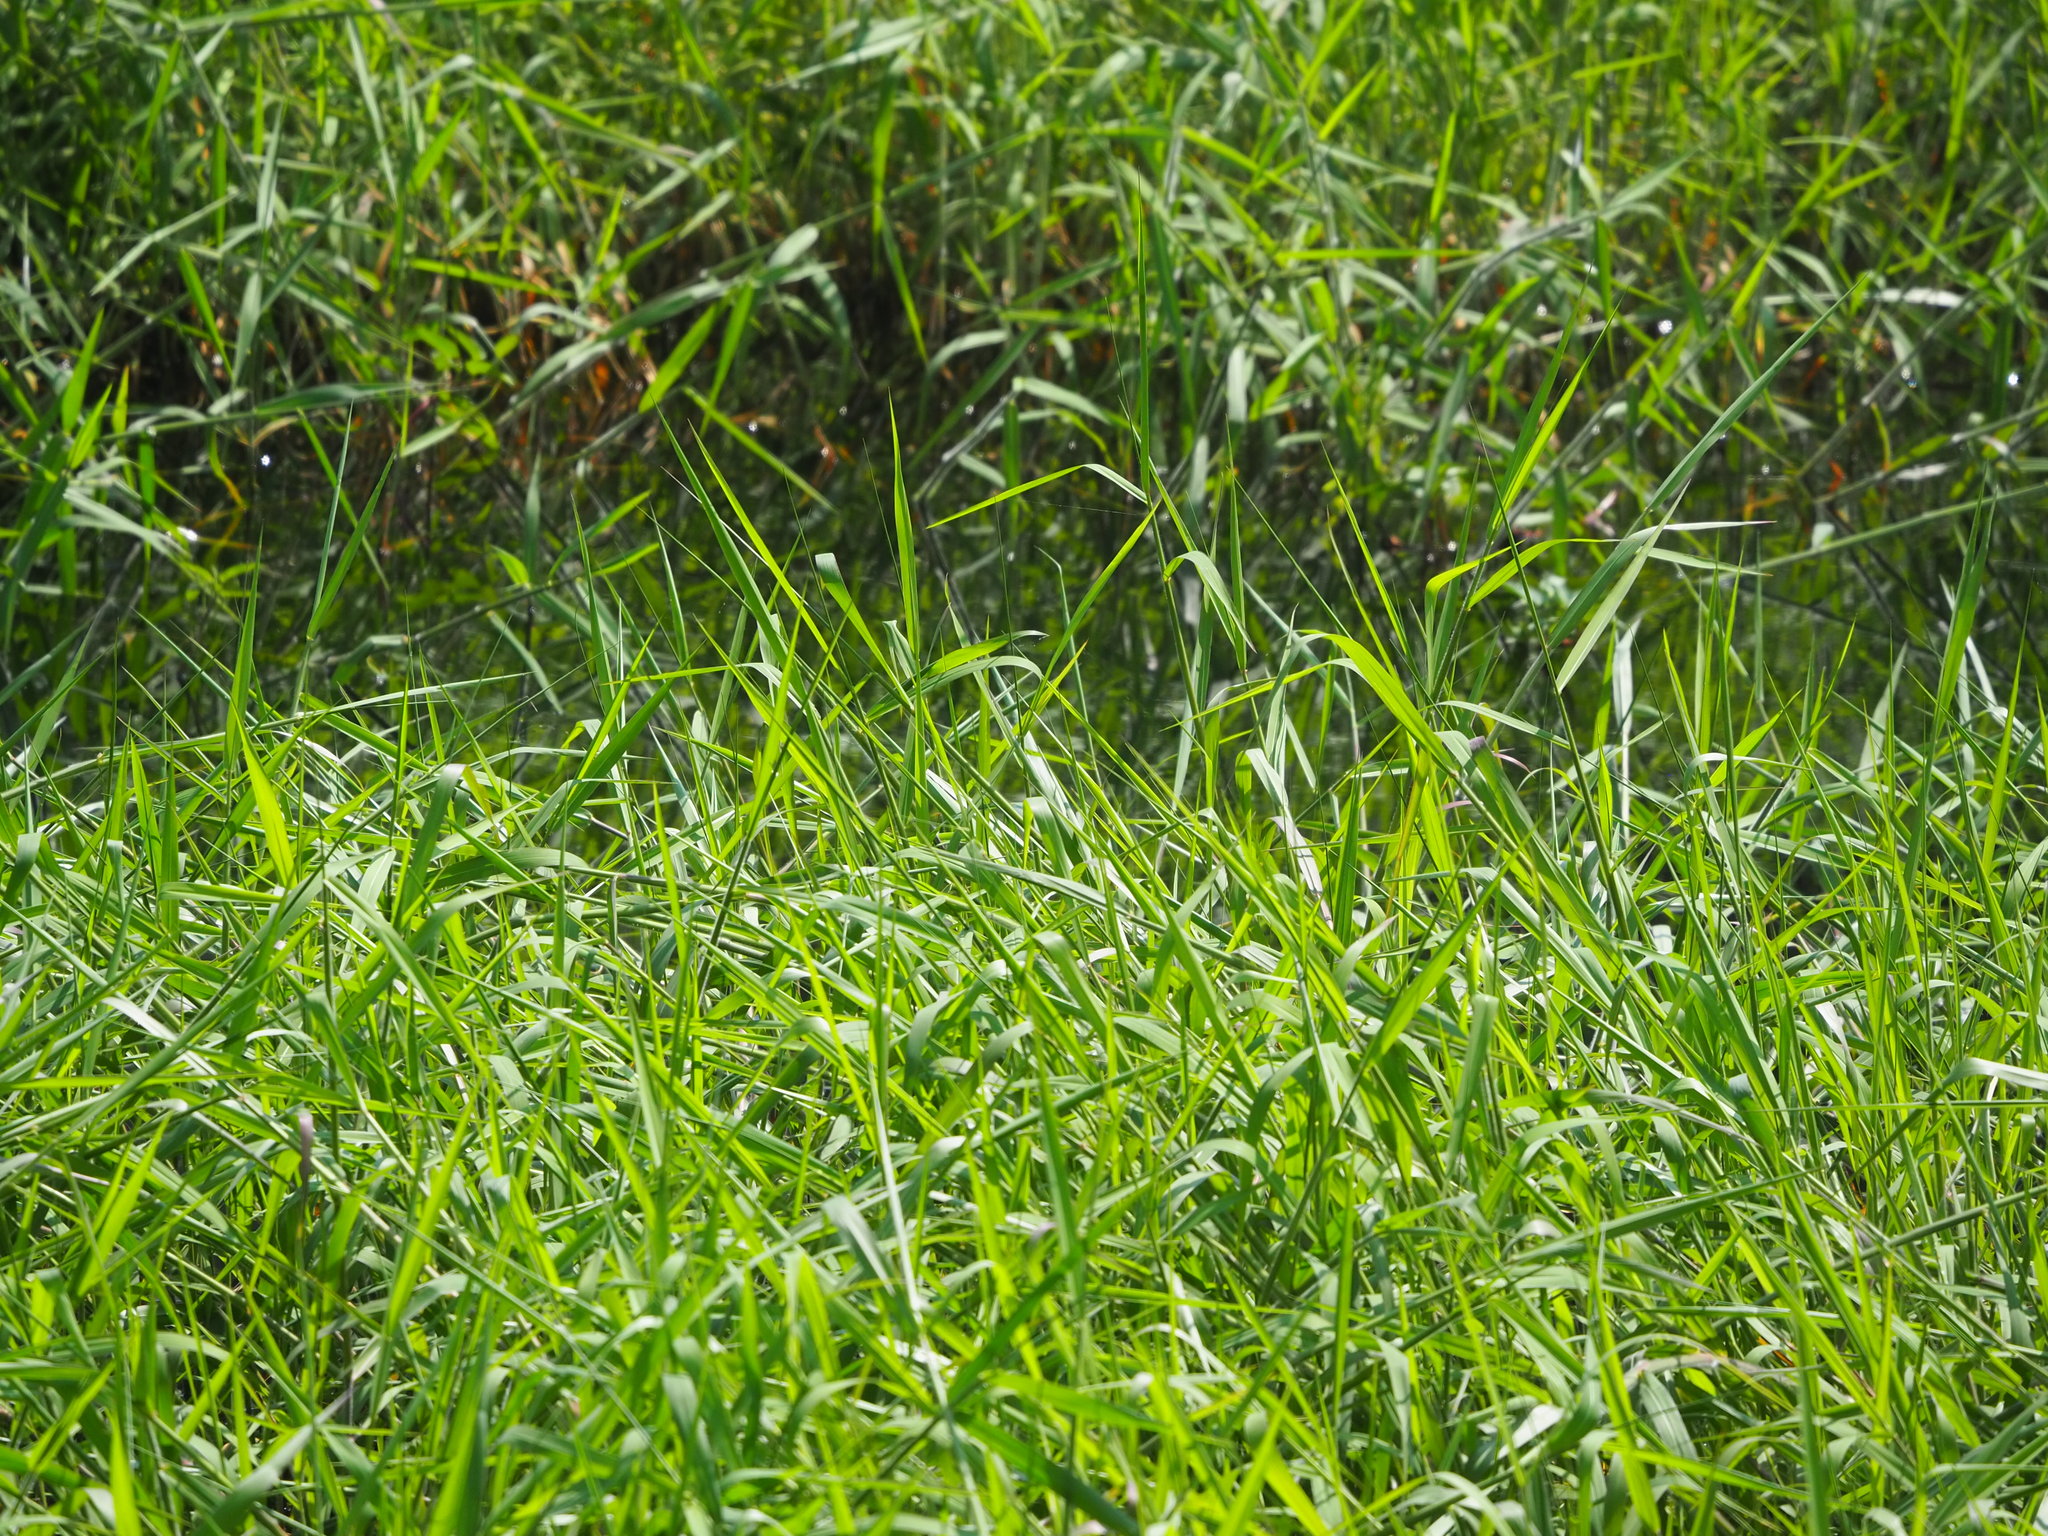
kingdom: Plantae
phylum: Tracheophyta
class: Liliopsida
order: Poales
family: Poaceae
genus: Urochloa
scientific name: Urochloa mutica
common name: Para grass
